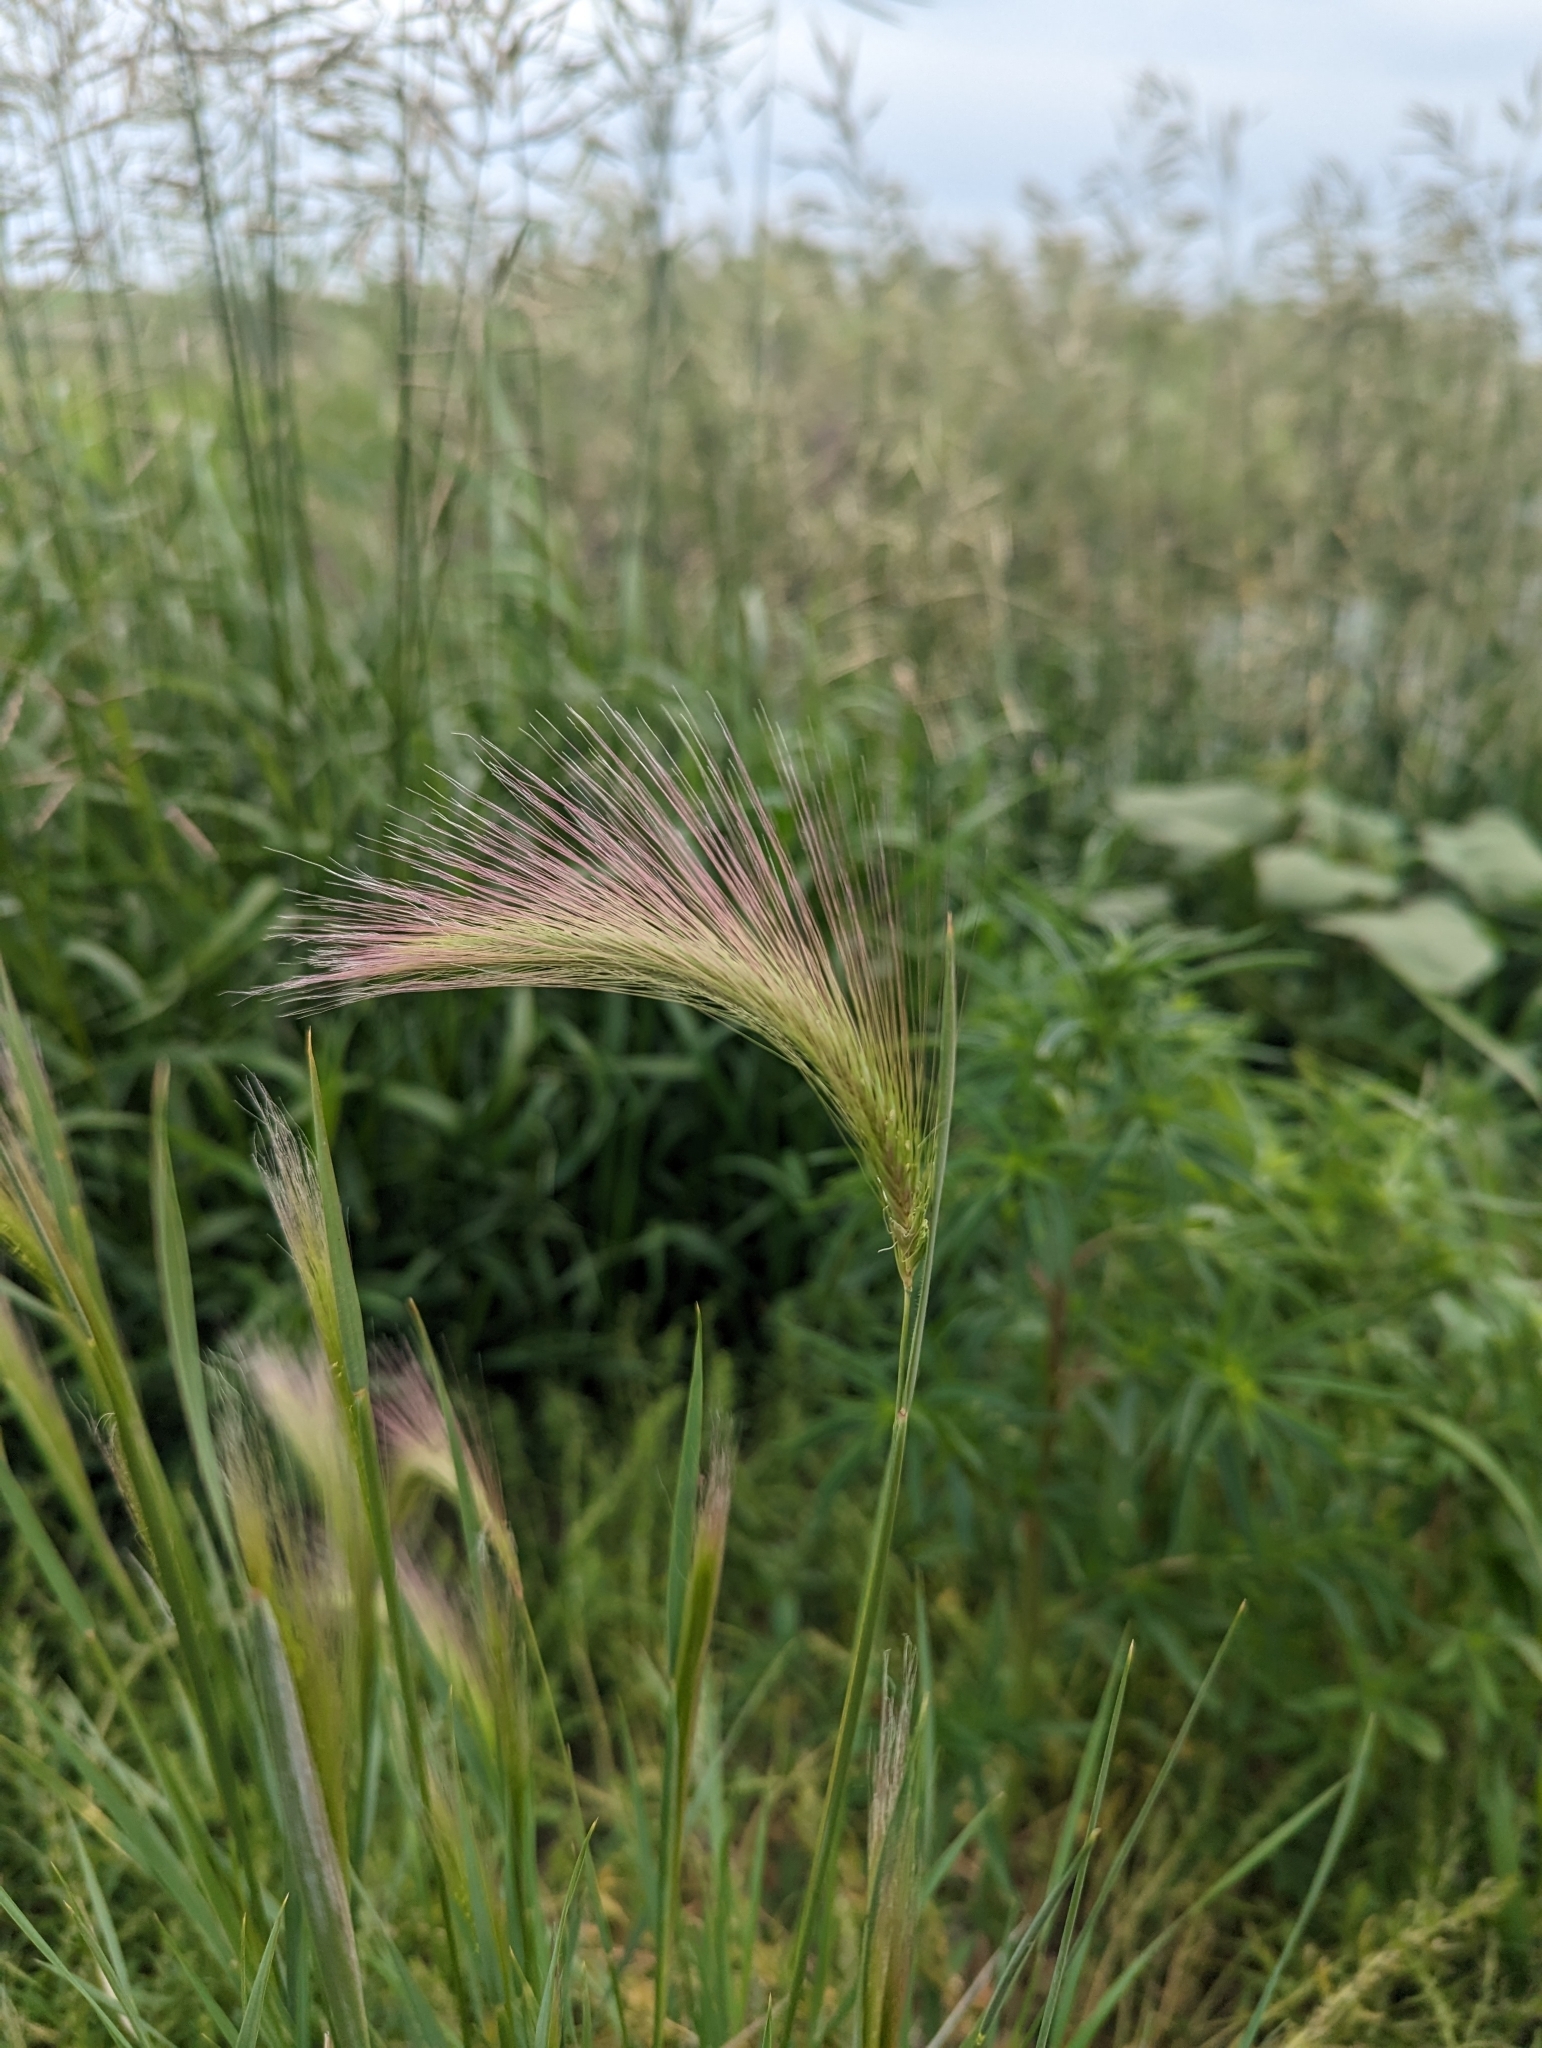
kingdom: Plantae
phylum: Tracheophyta
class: Liliopsida
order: Poales
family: Poaceae
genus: Hordeum
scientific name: Hordeum jubatum
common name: Foxtail barley
